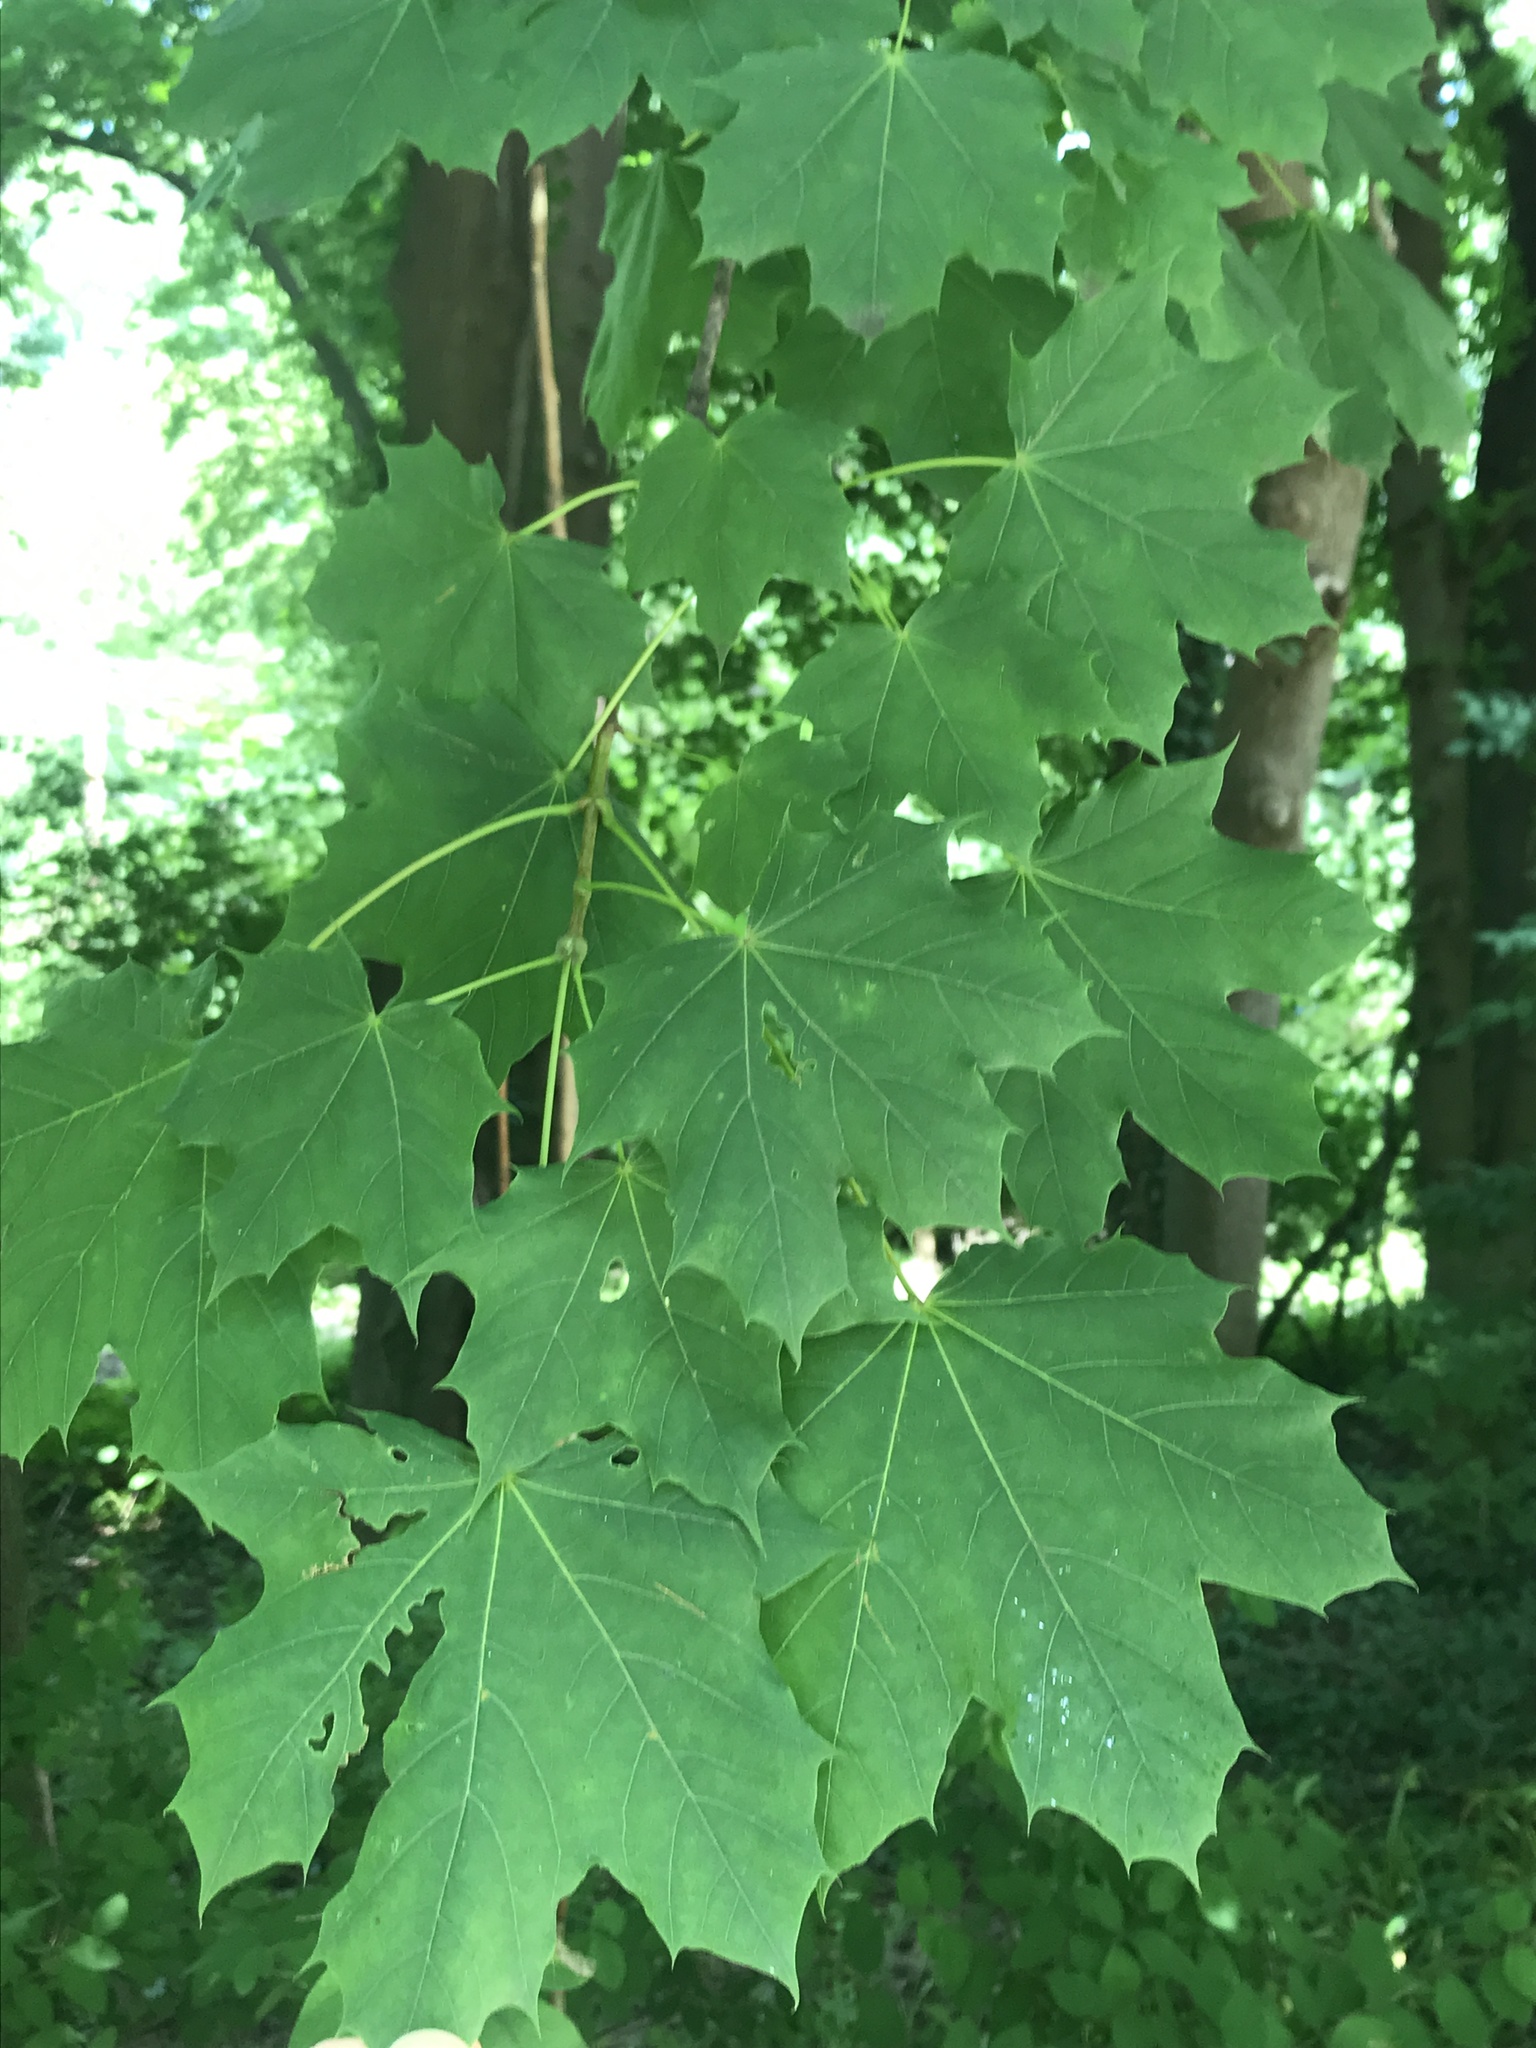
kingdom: Plantae
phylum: Tracheophyta
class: Magnoliopsida
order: Sapindales
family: Sapindaceae
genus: Acer
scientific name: Acer platanoides
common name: Norway maple
